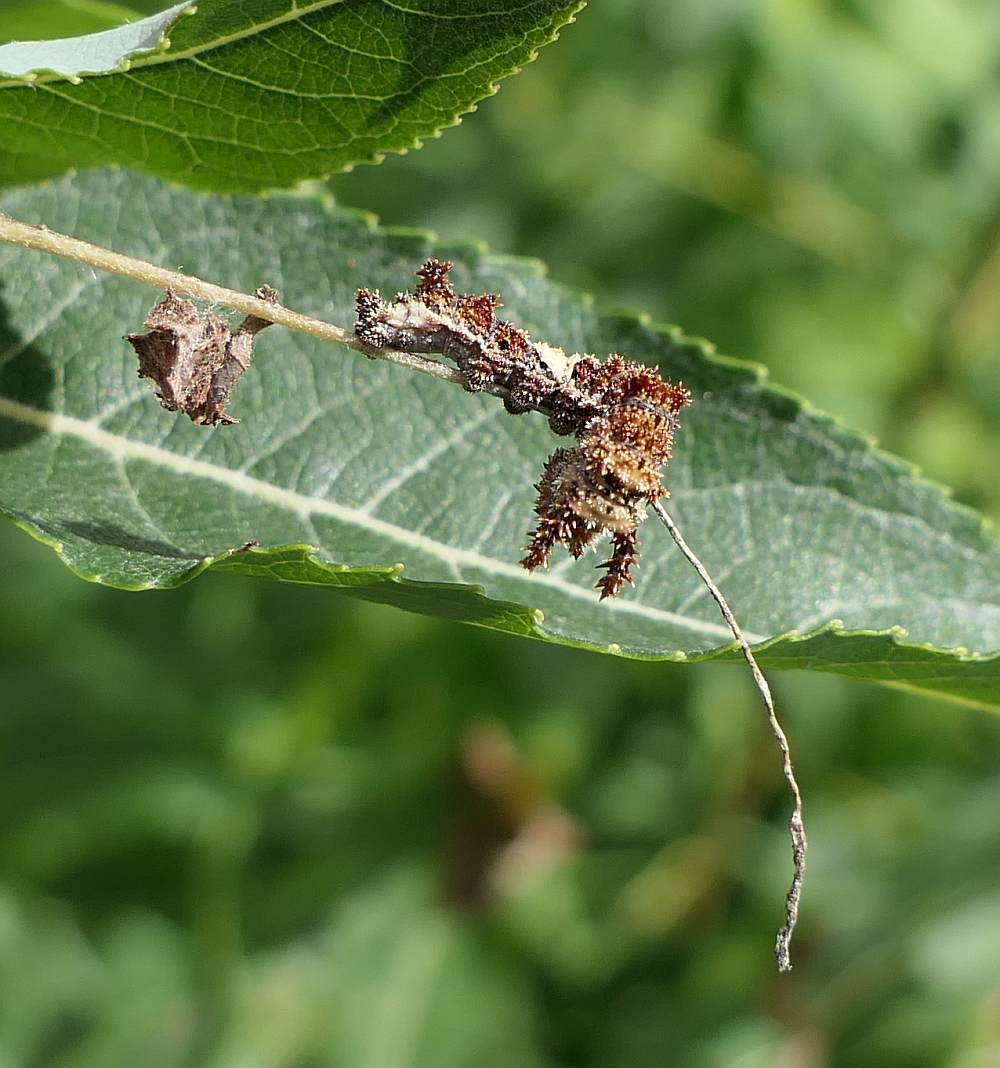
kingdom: Animalia
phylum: Arthropoda
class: Insecta
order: Lepidoptera
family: Nymphalidae
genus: Limenitis
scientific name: Limenitis
